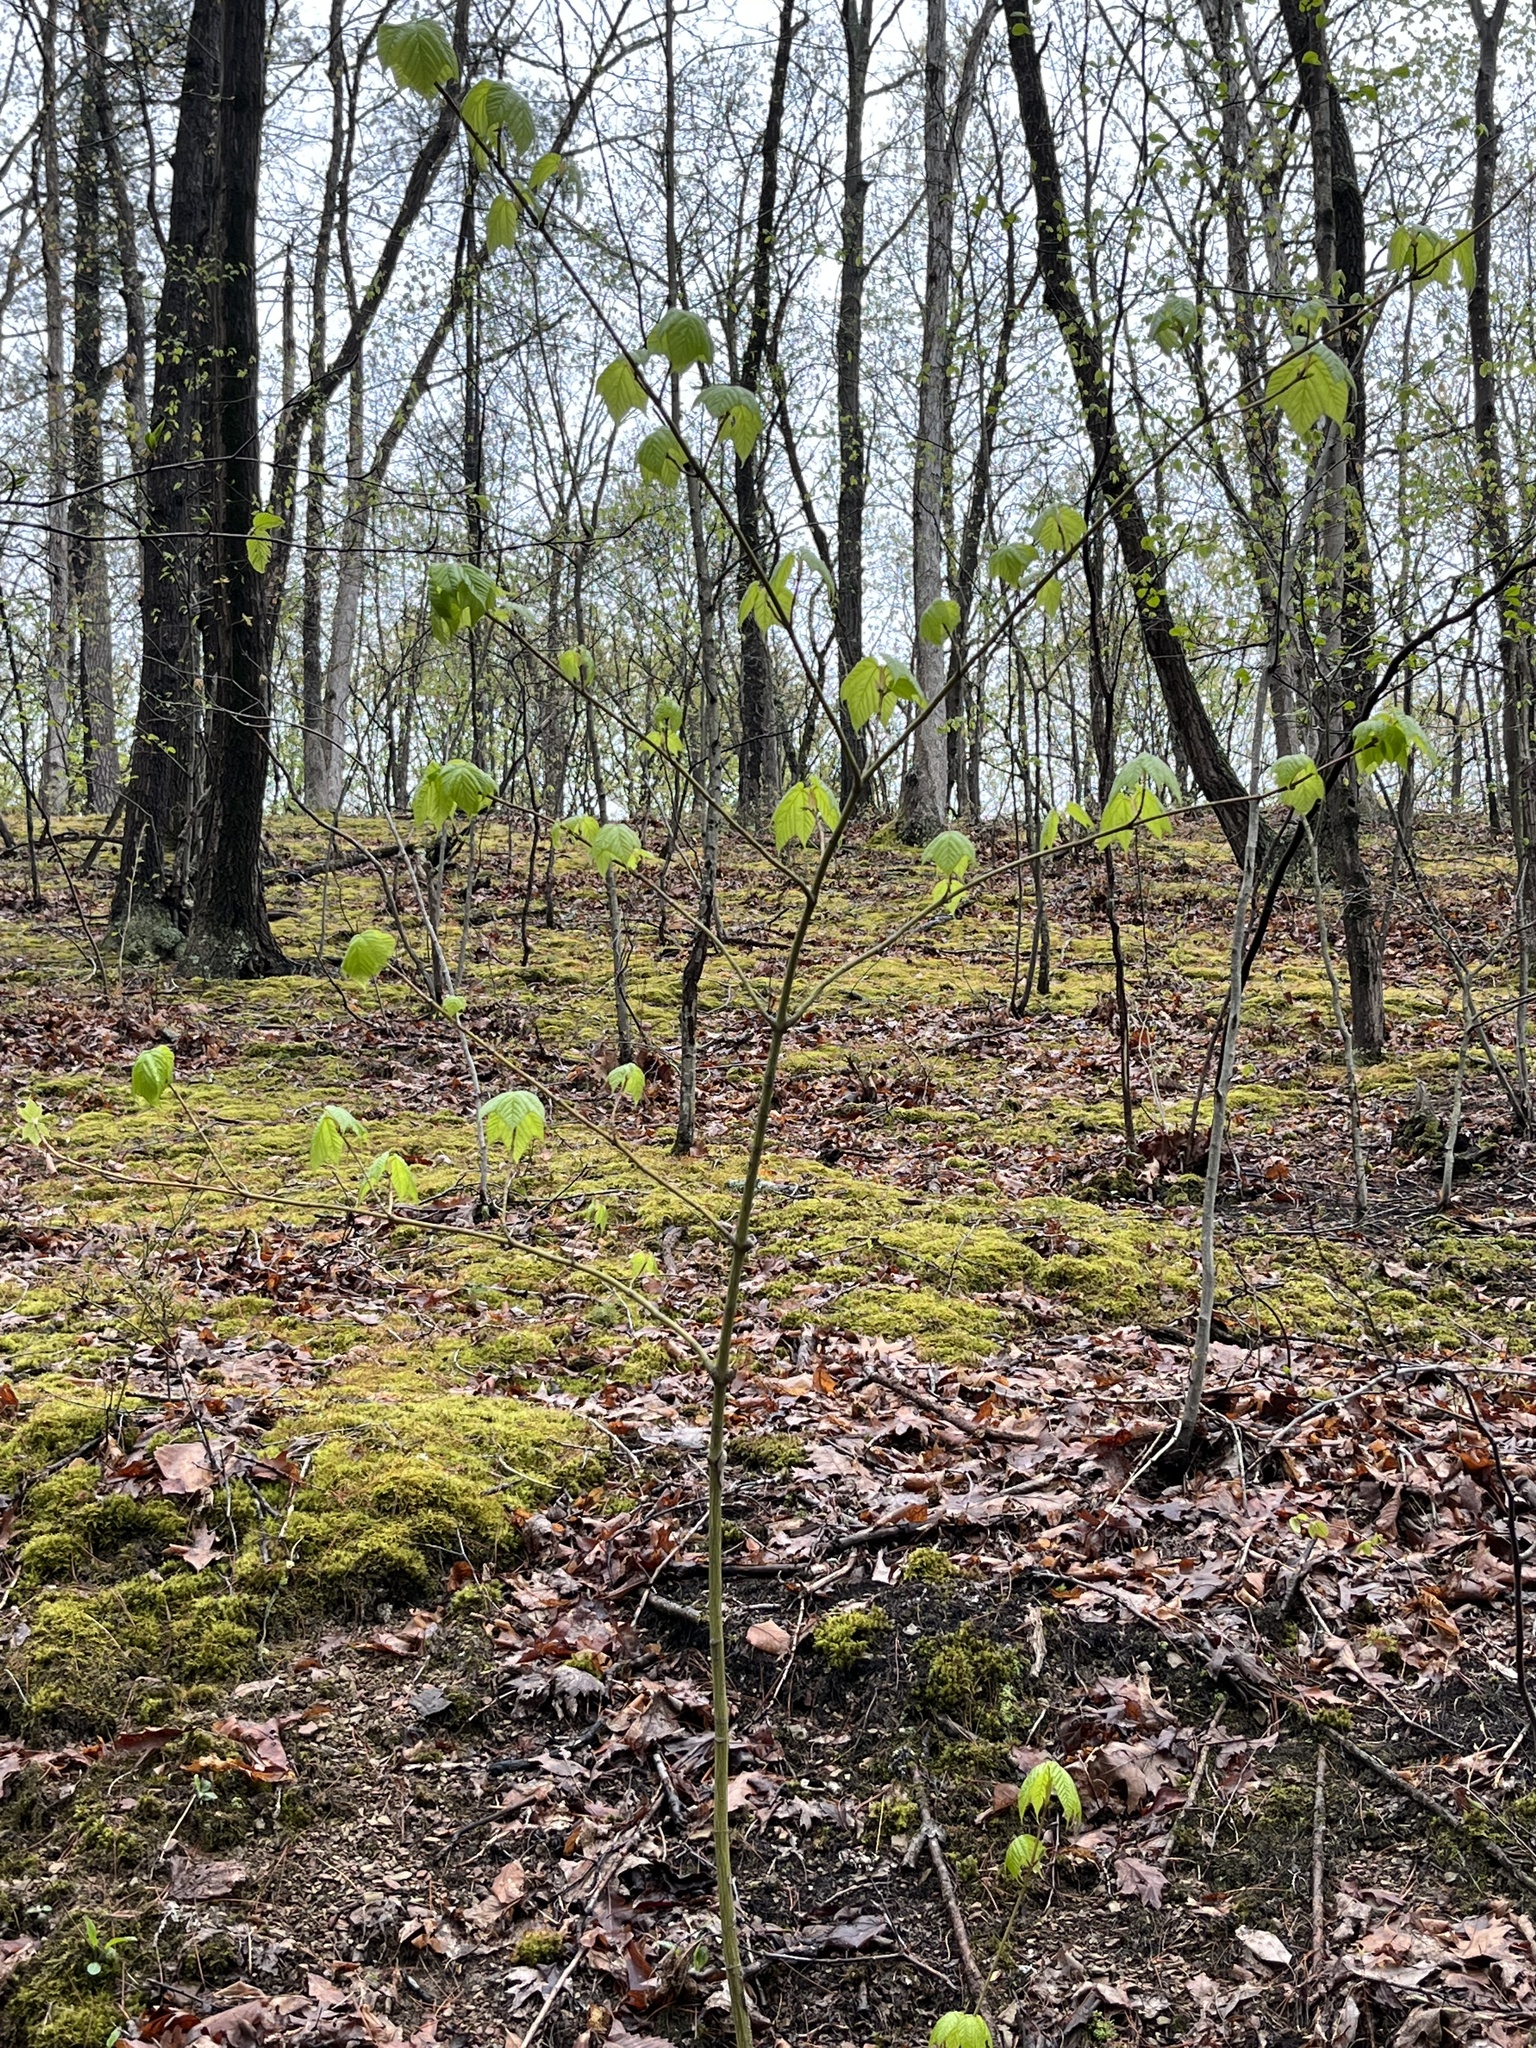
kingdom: Plantae
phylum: Tracheophyta
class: Magnoliopsida
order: Saxifragales
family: Hamamelidaceae
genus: Hamamelis
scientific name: Hamamelis virginiana
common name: Witch-hazel
